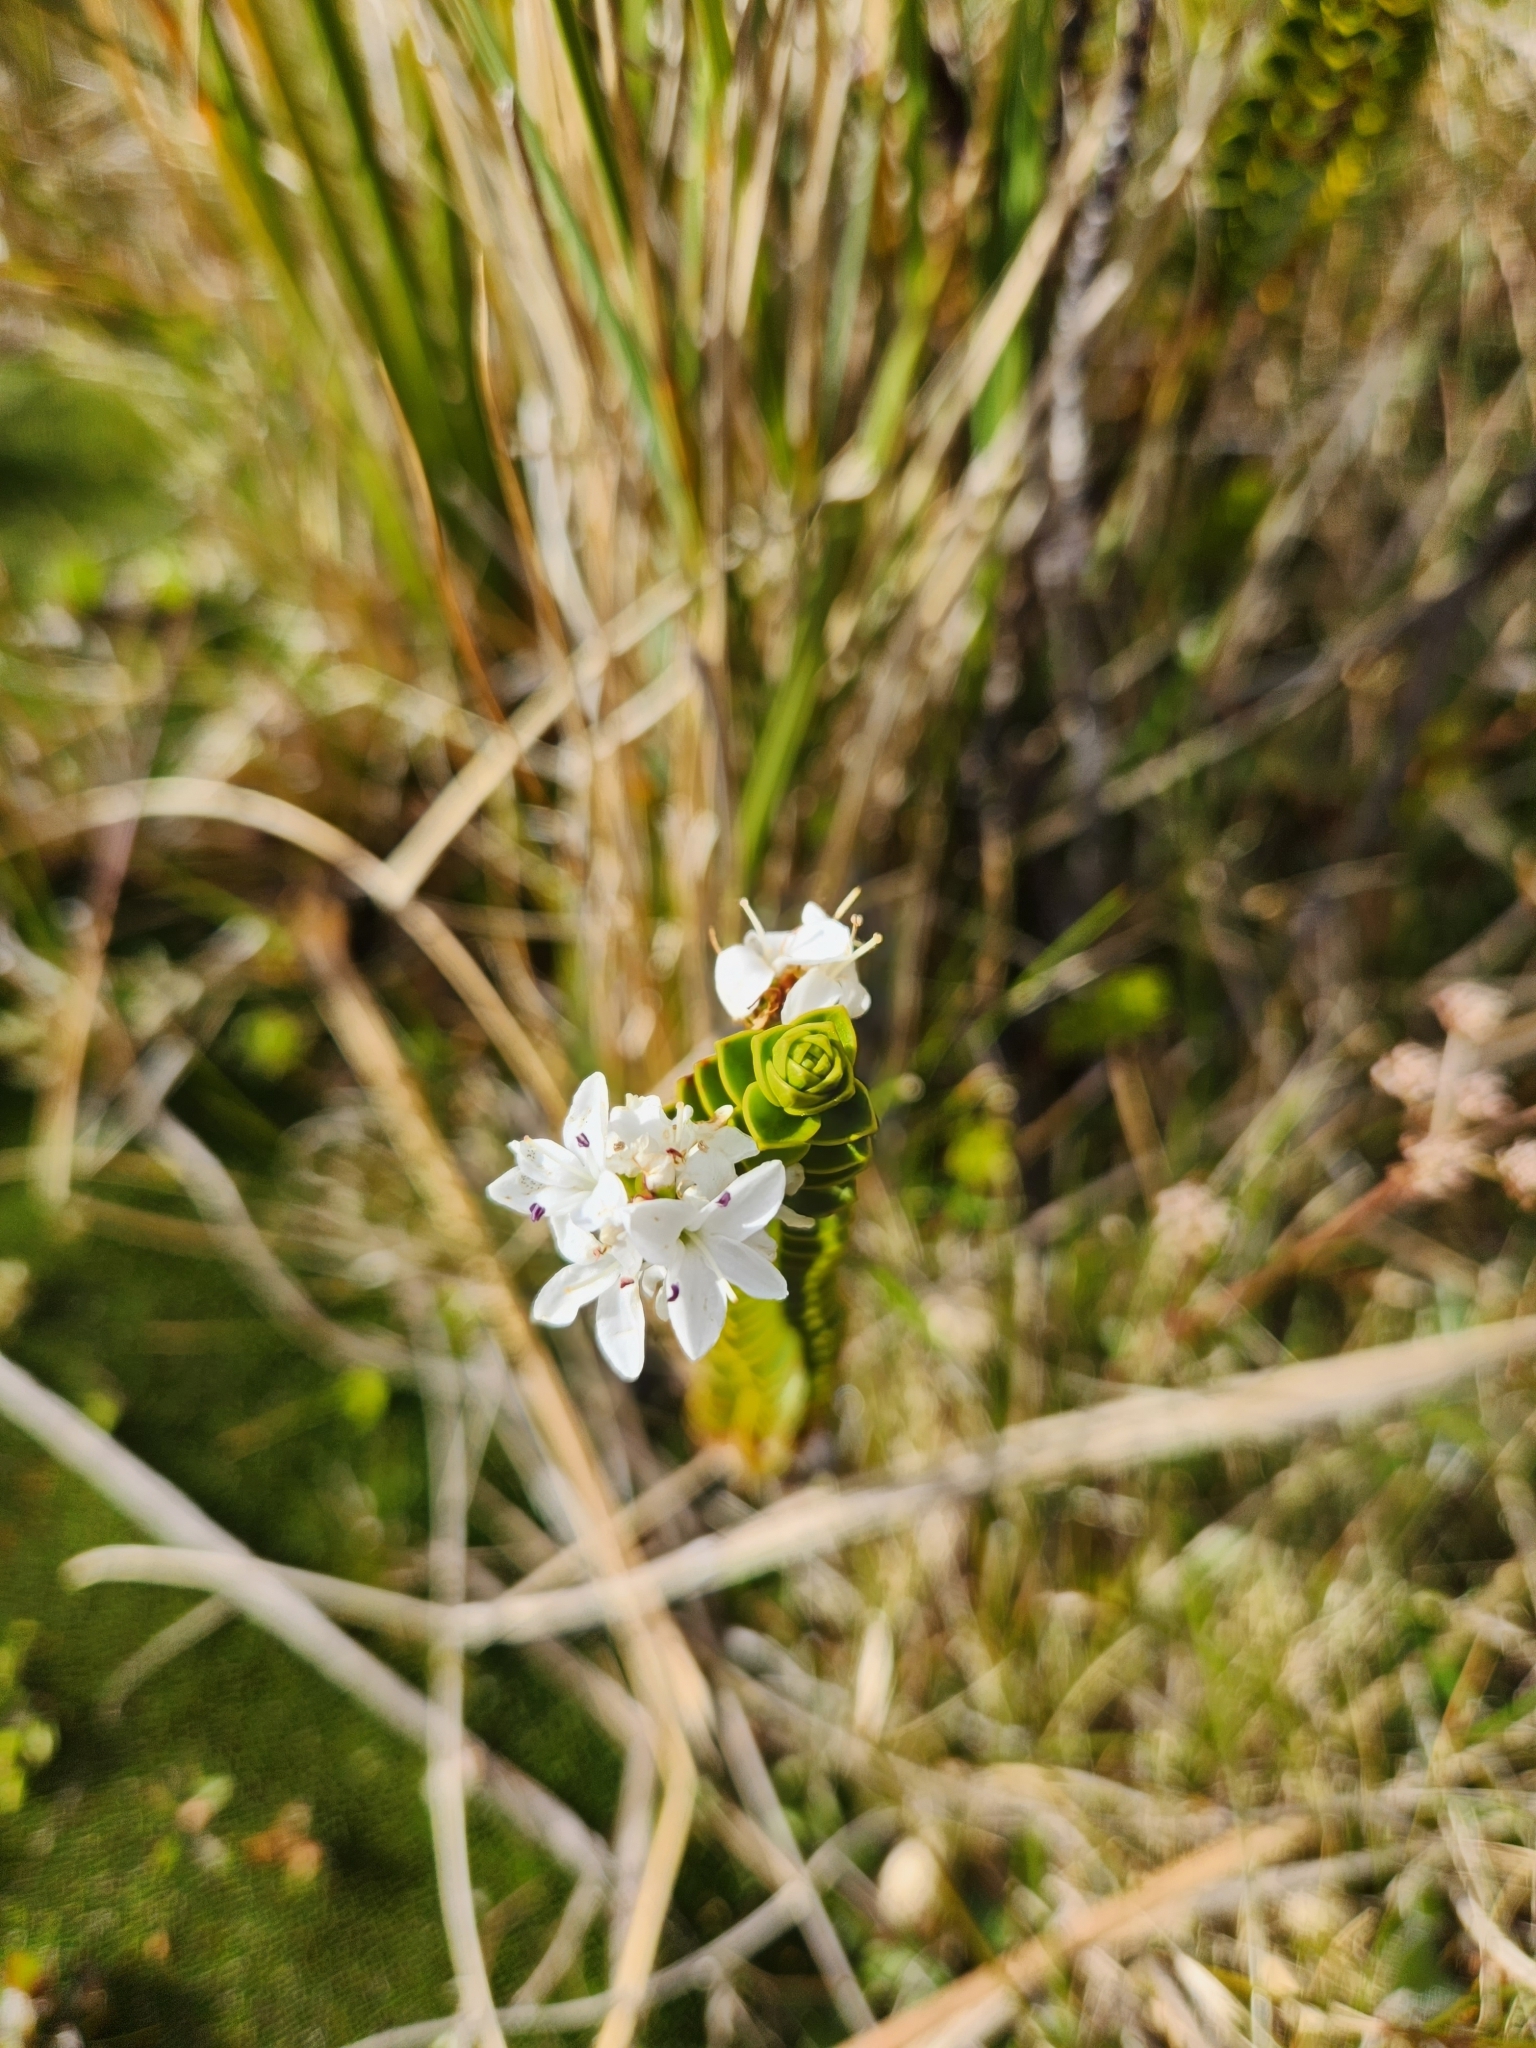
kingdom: Plantae
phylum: Tracheophyta
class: Magnoliopsida
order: Lamiales
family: Plantaginaceae
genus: Veronica
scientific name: Veronica pauciramosa
